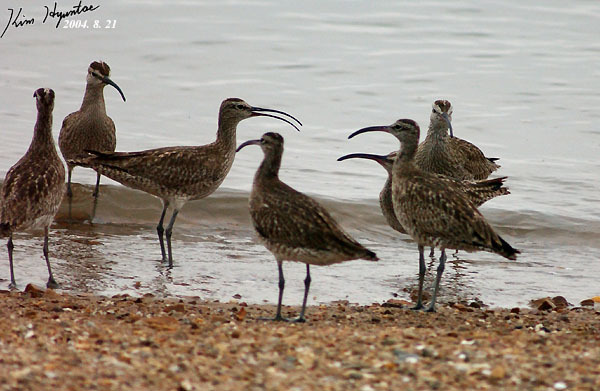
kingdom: Animalia
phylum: Chordata
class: Aves
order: Charadriiformes
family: Scolopacidae
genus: Numenius
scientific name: Numenius phaeopus
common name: Whimbrel
